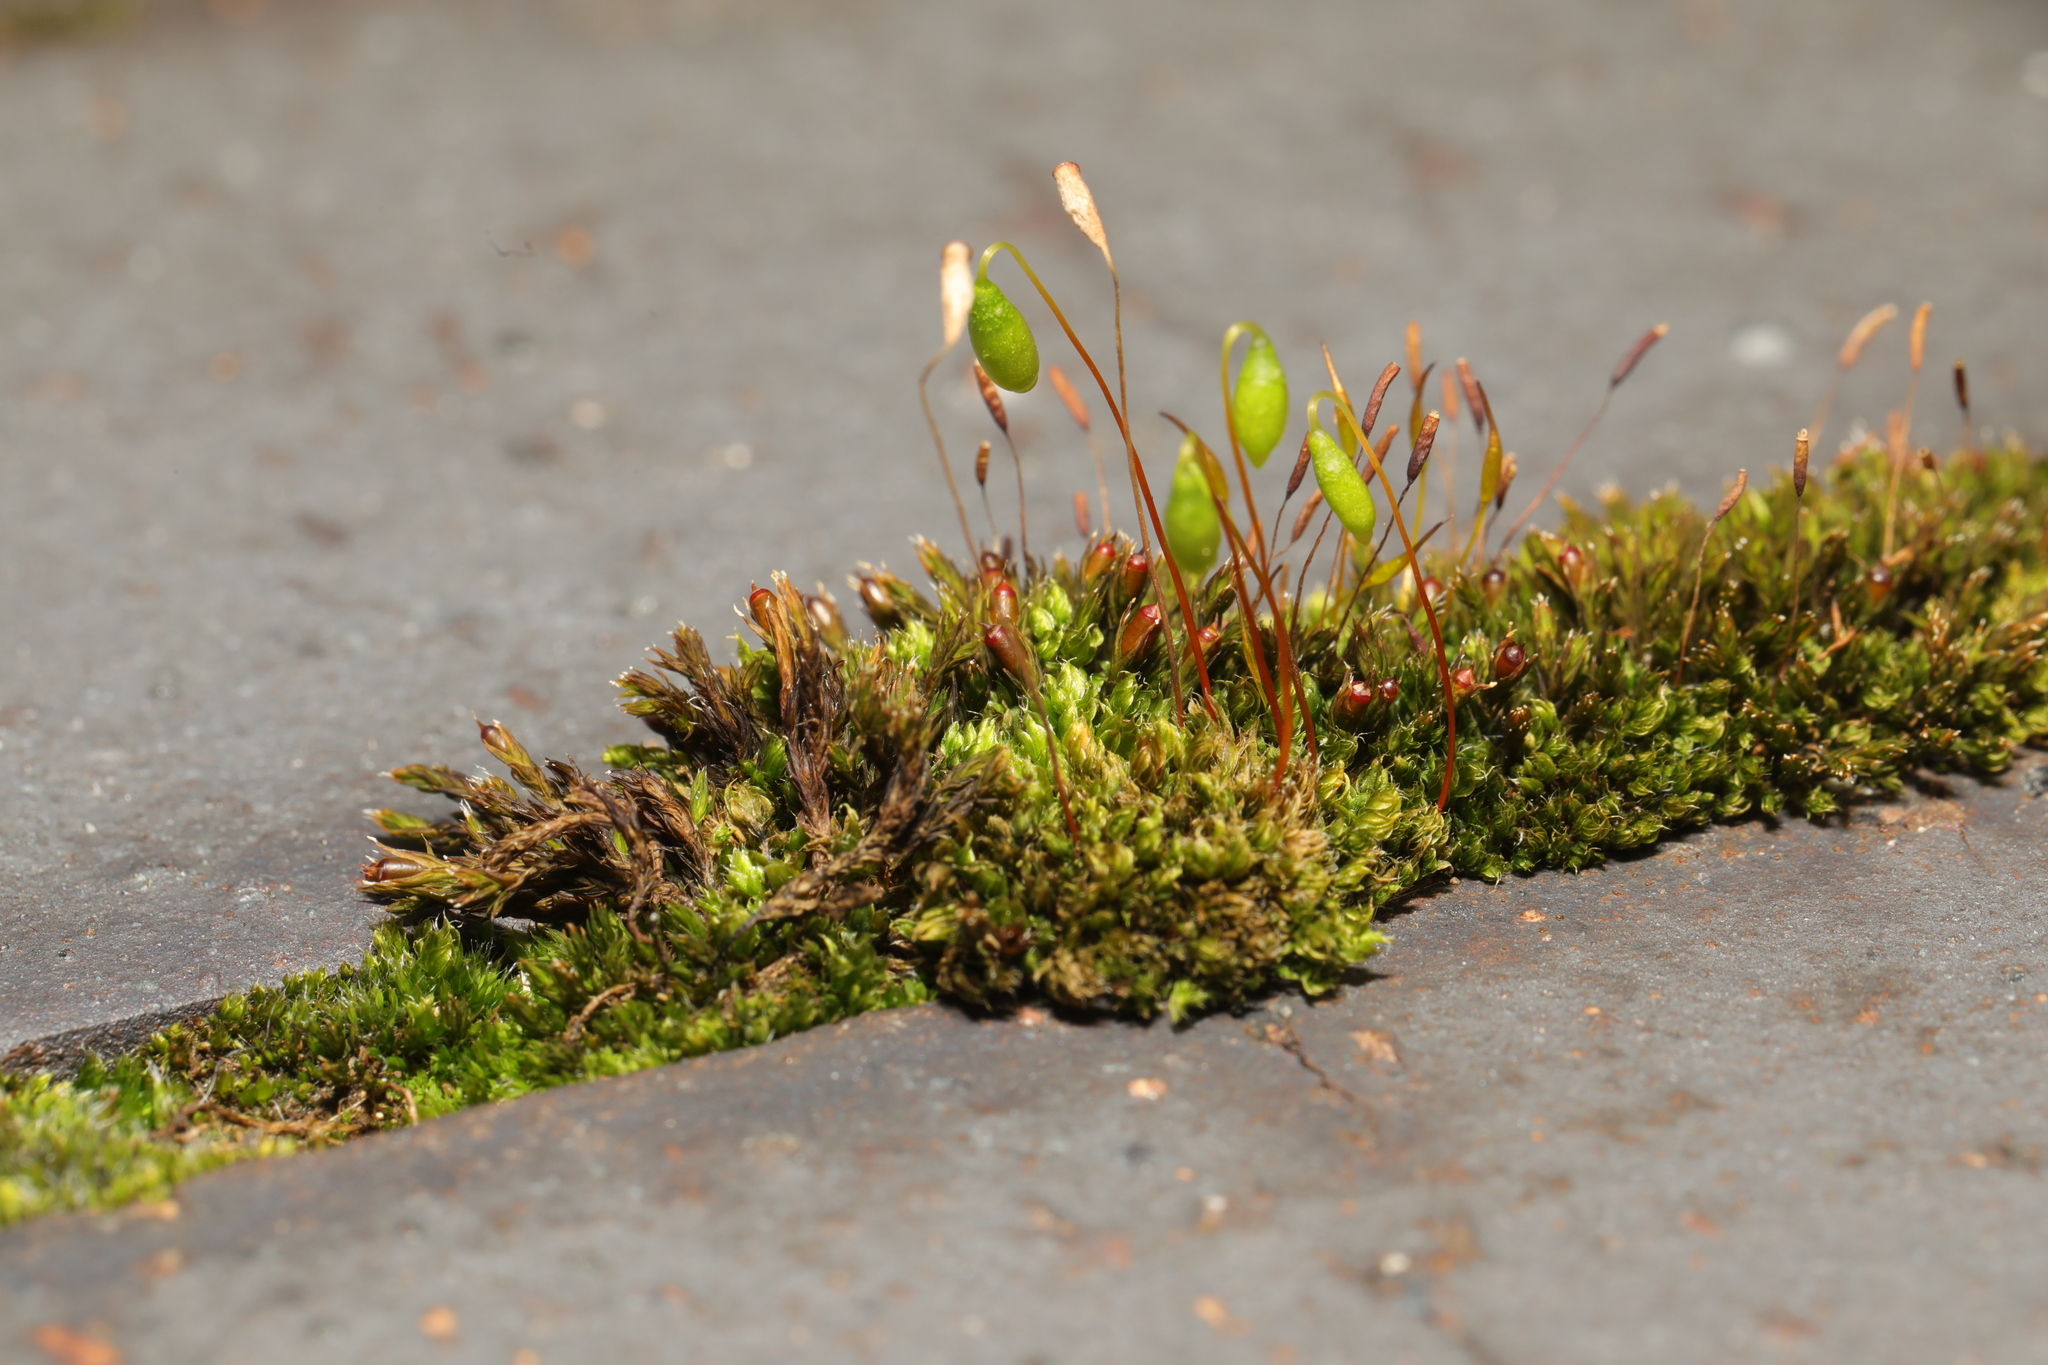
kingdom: Plantae
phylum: Bryophyta
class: Bryopsida
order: Bryales
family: Bryaceae
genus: Rosulabryum
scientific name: Rosulabryum capillare
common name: Capillary thread-moss
